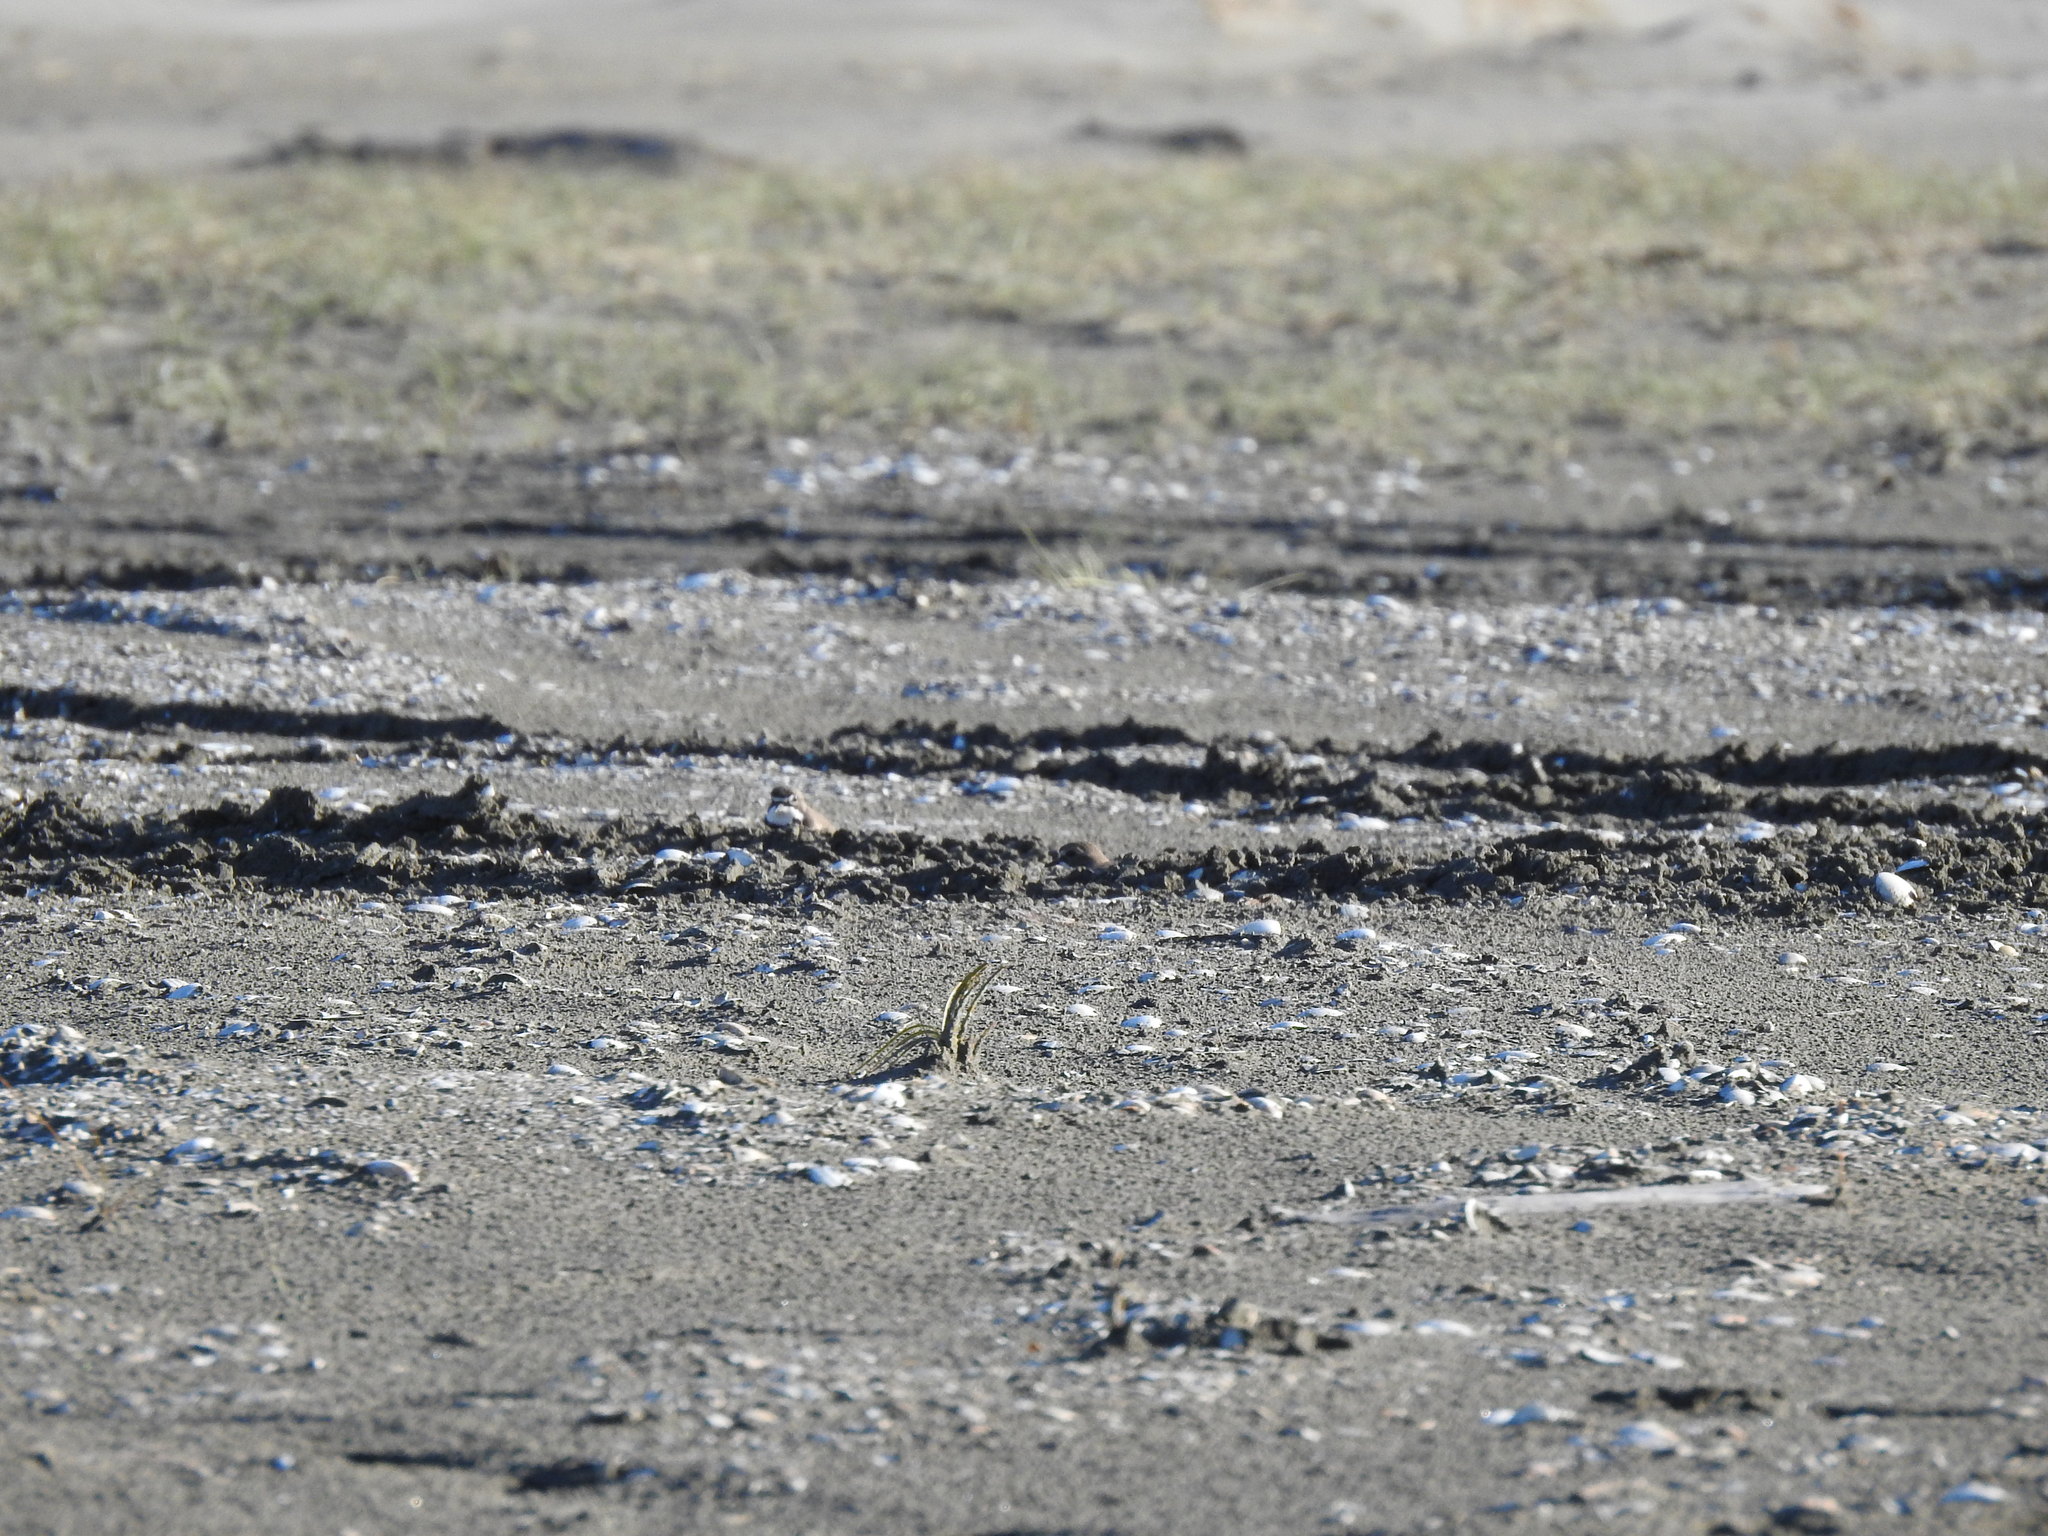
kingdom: Animalia
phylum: Chordata
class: Aves
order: Charadriiformes
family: Charadriidae
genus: Anarhynchus
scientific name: Anarhynchus
